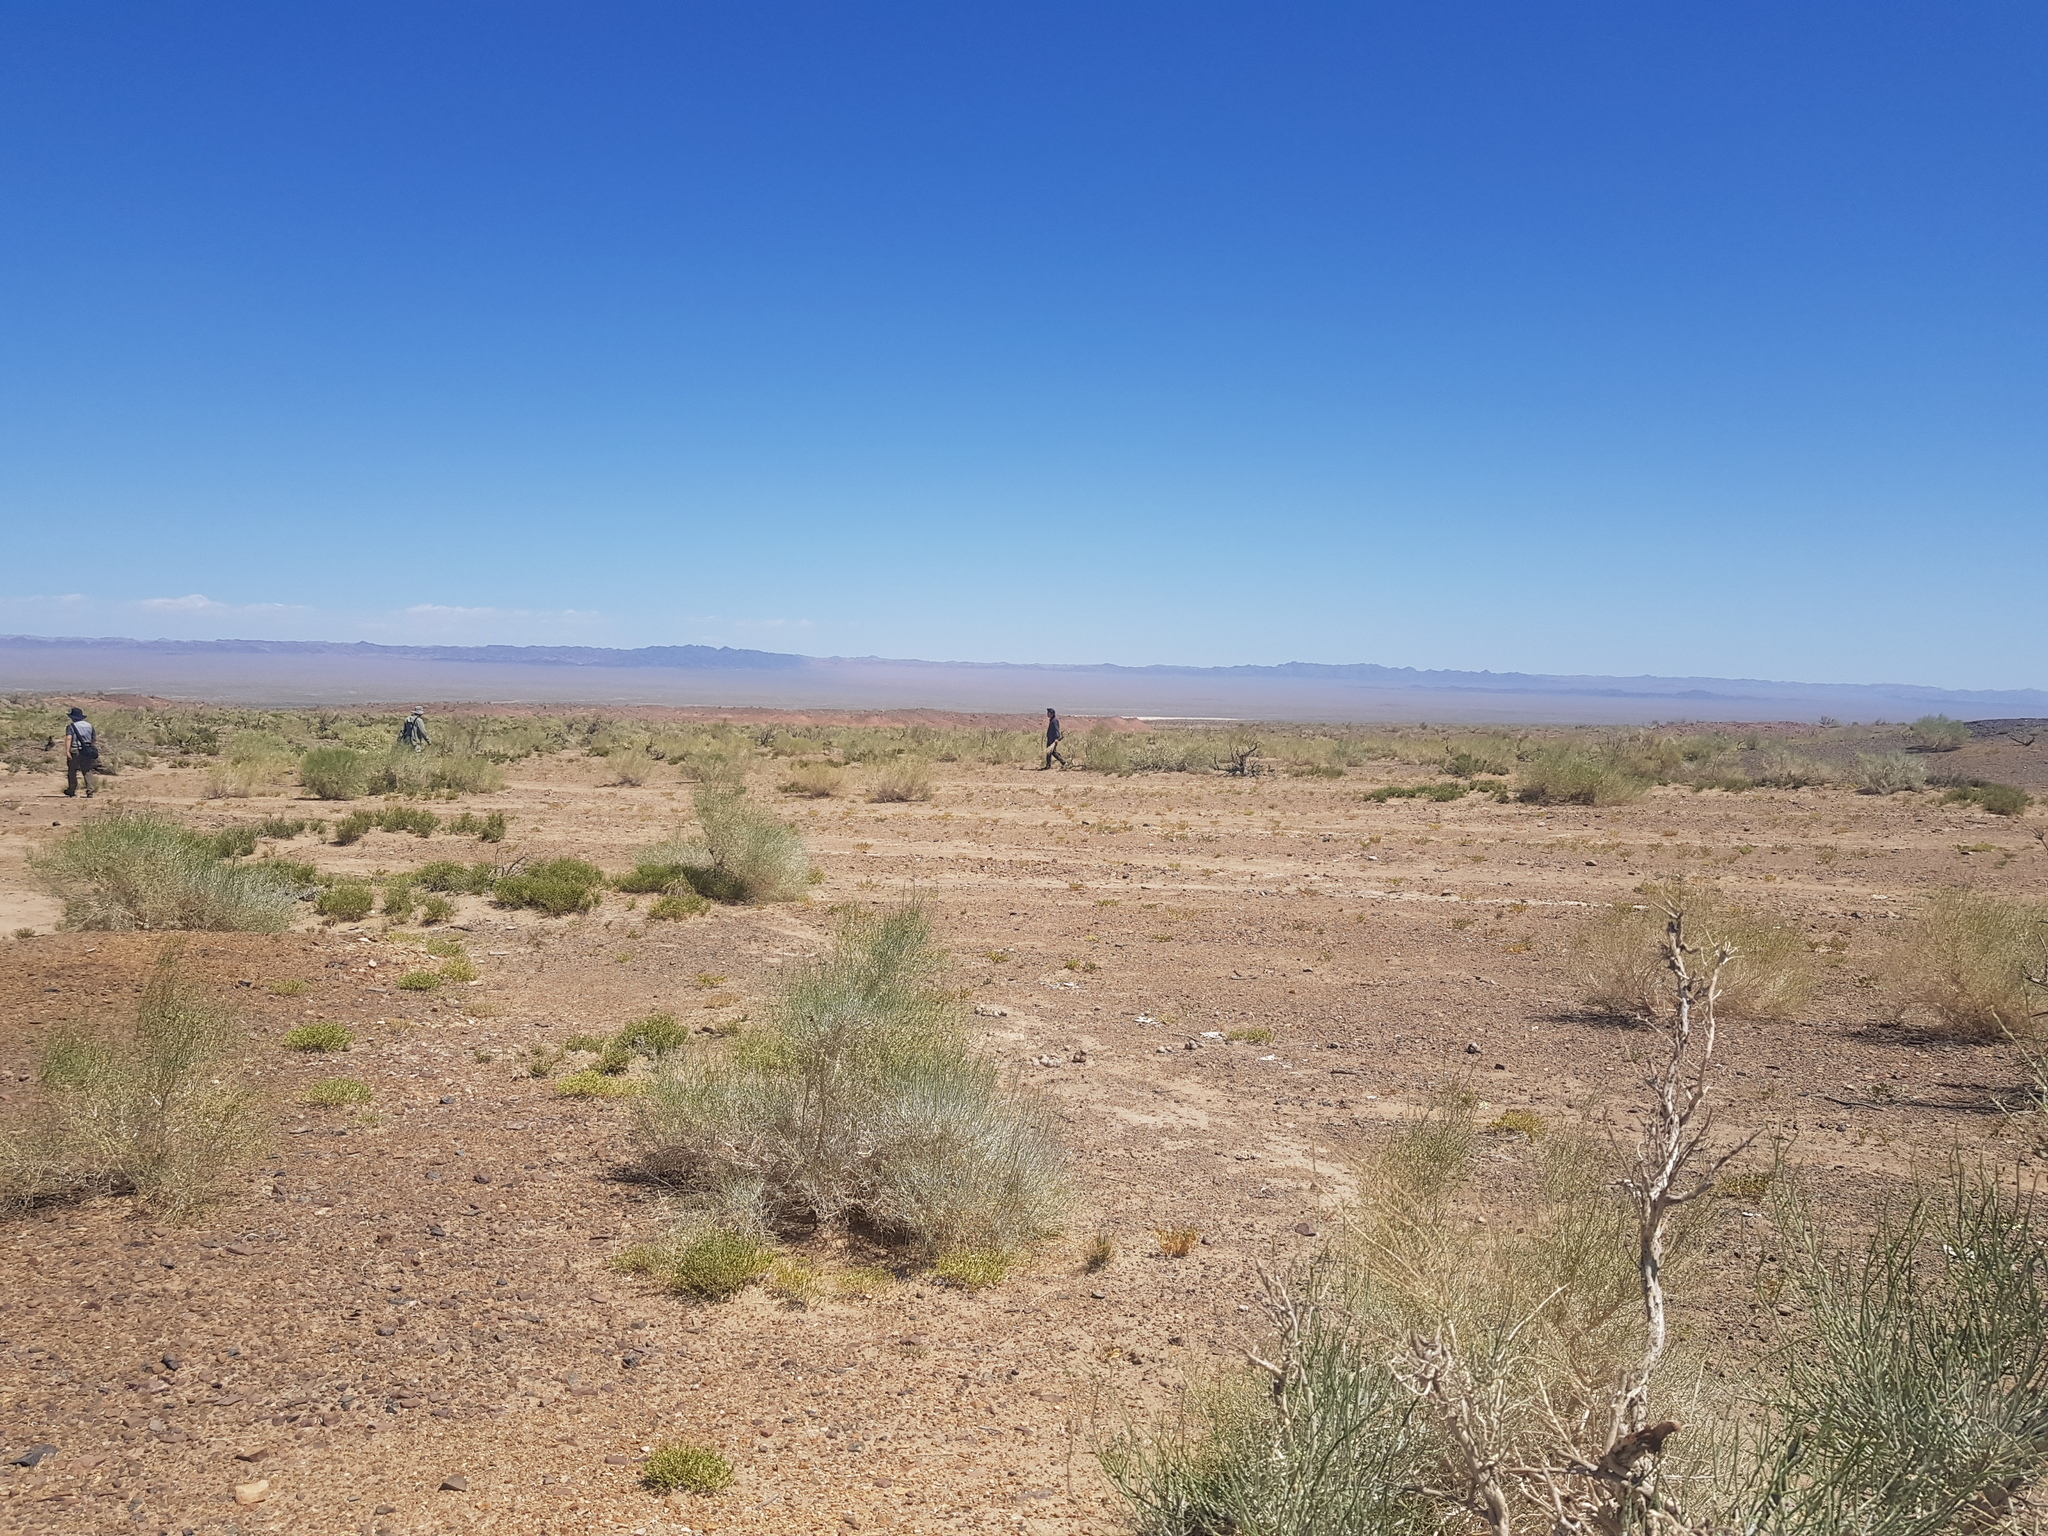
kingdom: Plantae
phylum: Tracheophyta
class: Magnoliopsida
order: Caryophyllales
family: Amaranthaceae
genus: Haloxylon
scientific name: Haloxylon ammodendron
